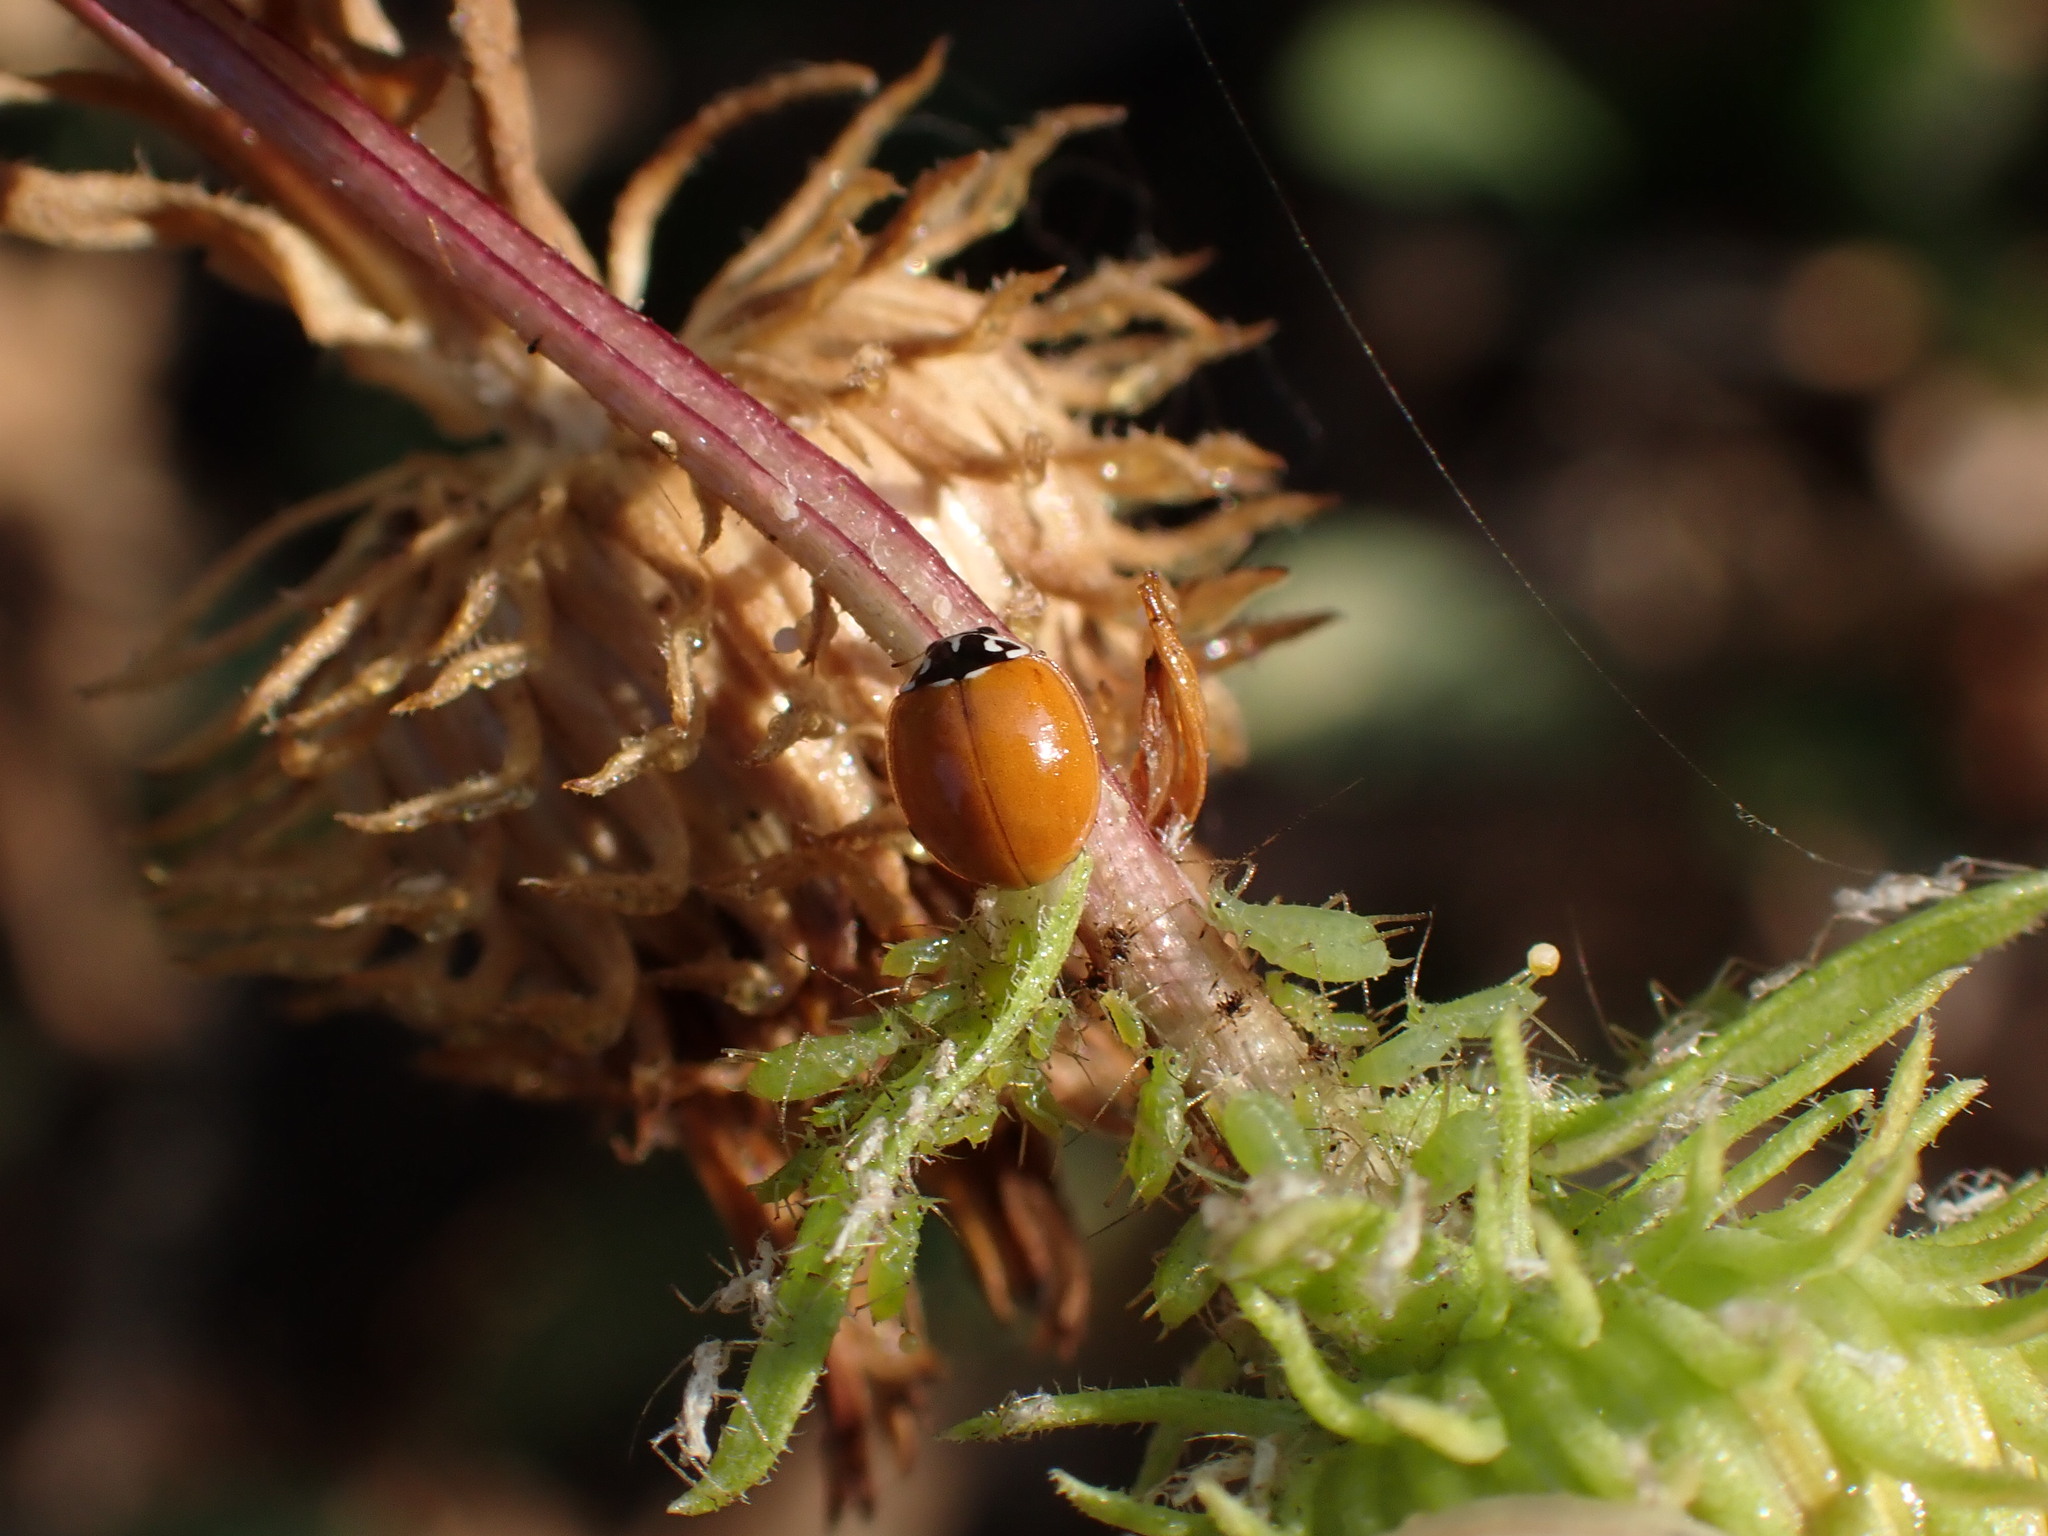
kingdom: Animalia
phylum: Arthropoda
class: Insecta
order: Coleoptera
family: Coccinellidae
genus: Cycloneda
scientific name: Cycloneda polita
